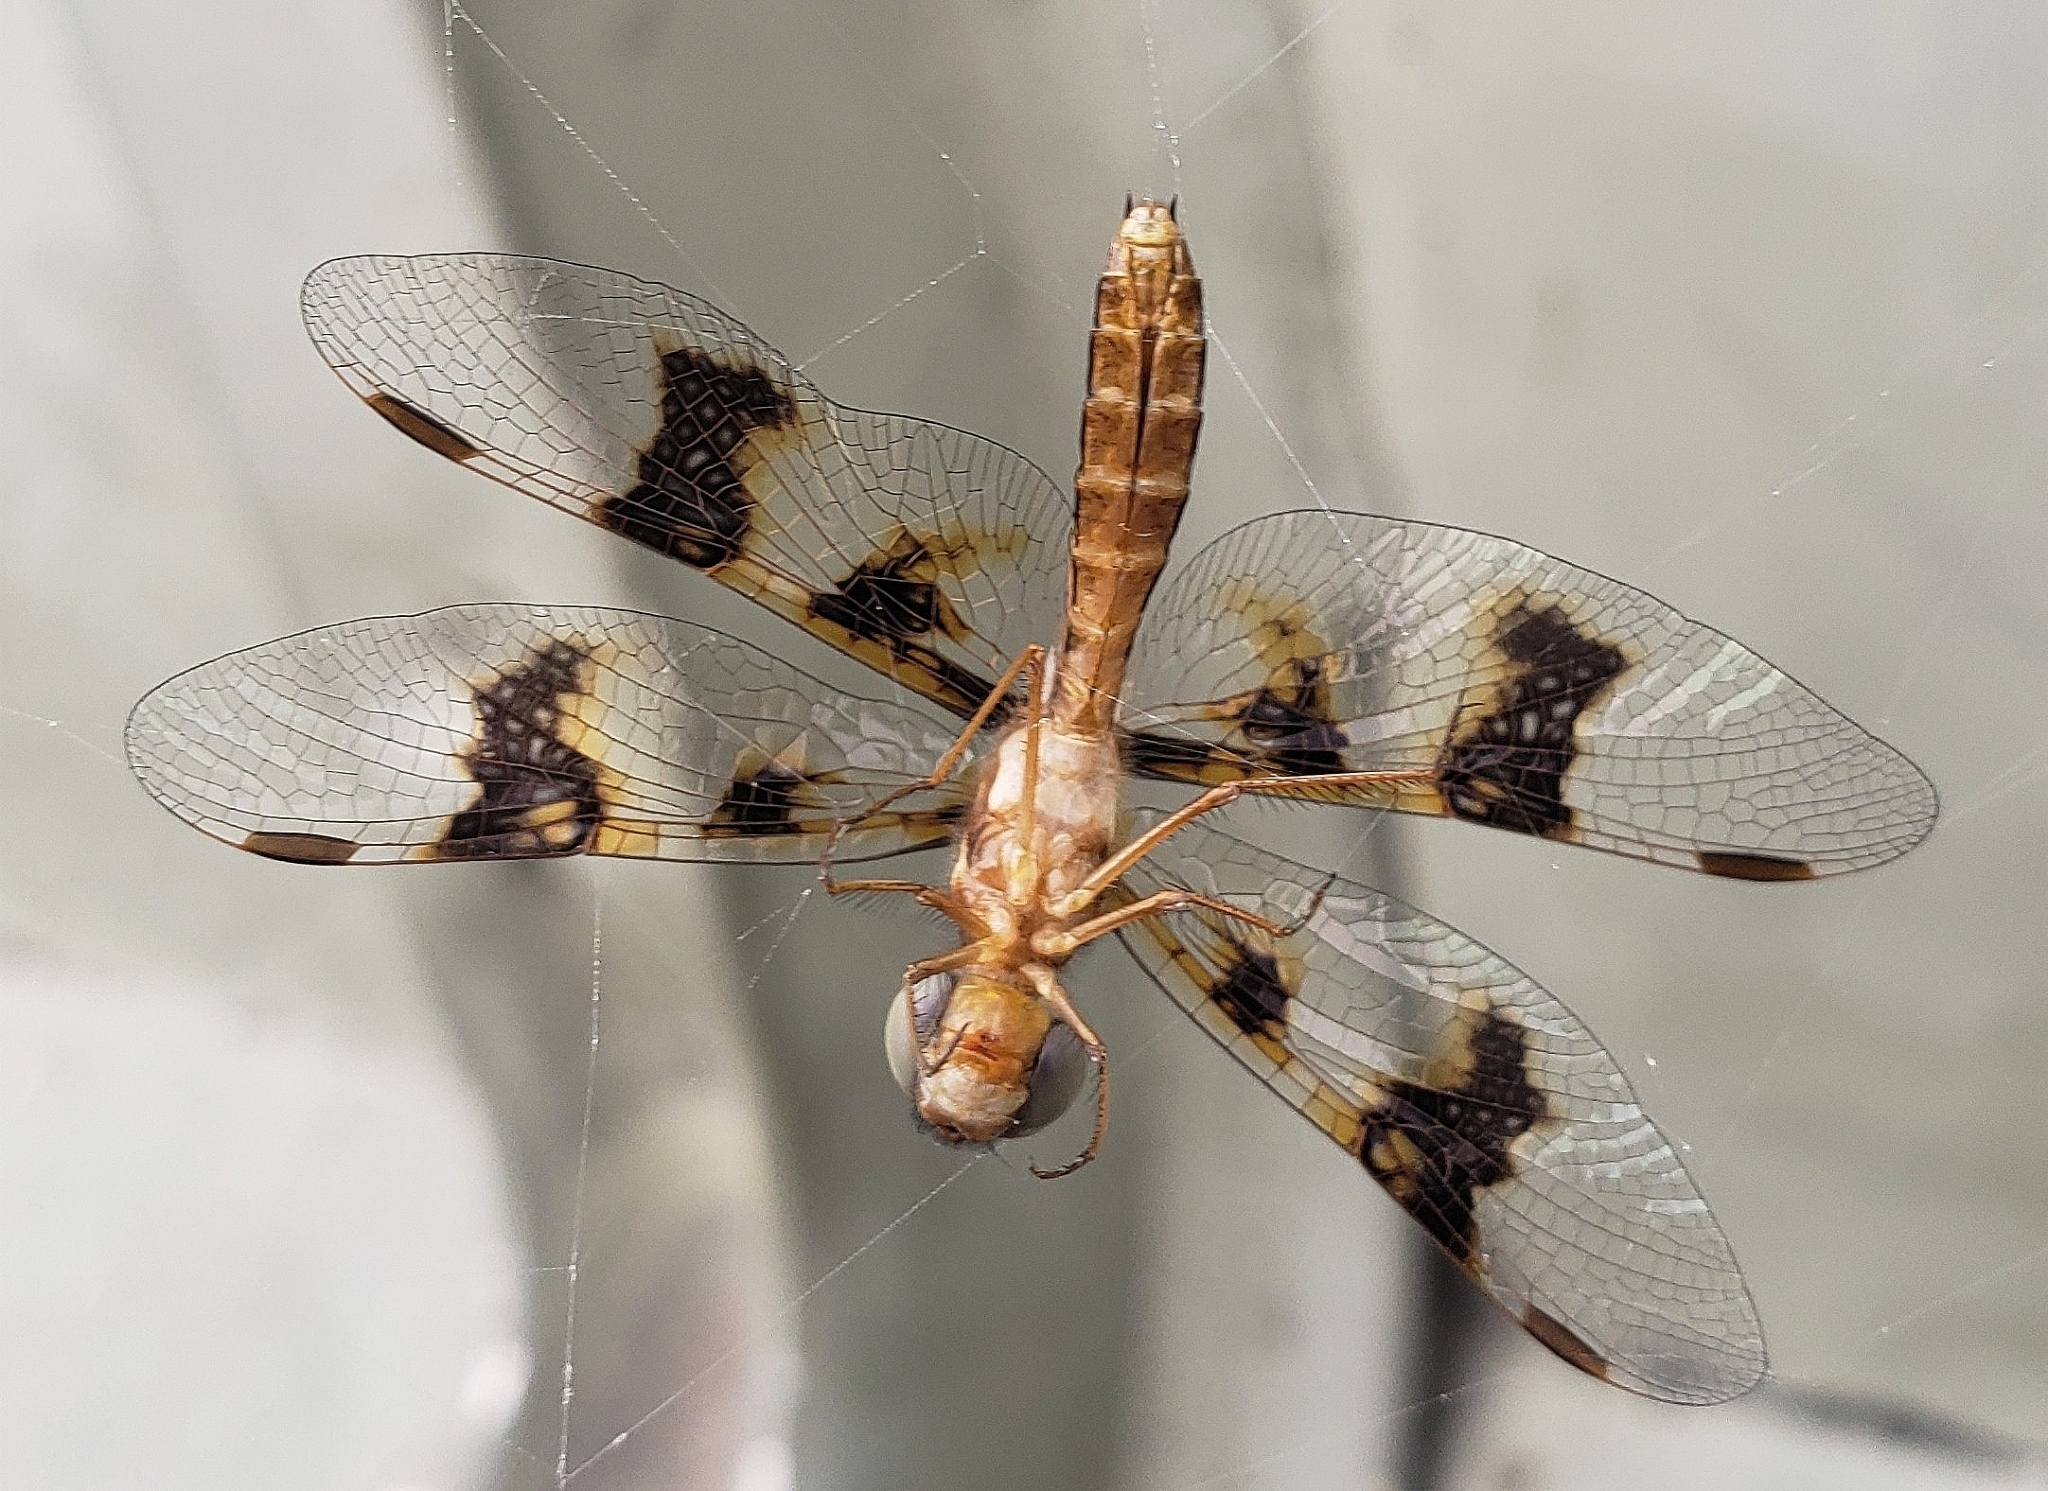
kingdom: Animalia
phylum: Arthropoda
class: Insecta
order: Odonata
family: Libellulidae
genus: Perithemis
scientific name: Perithemis tenera
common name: Eastern amberwing
